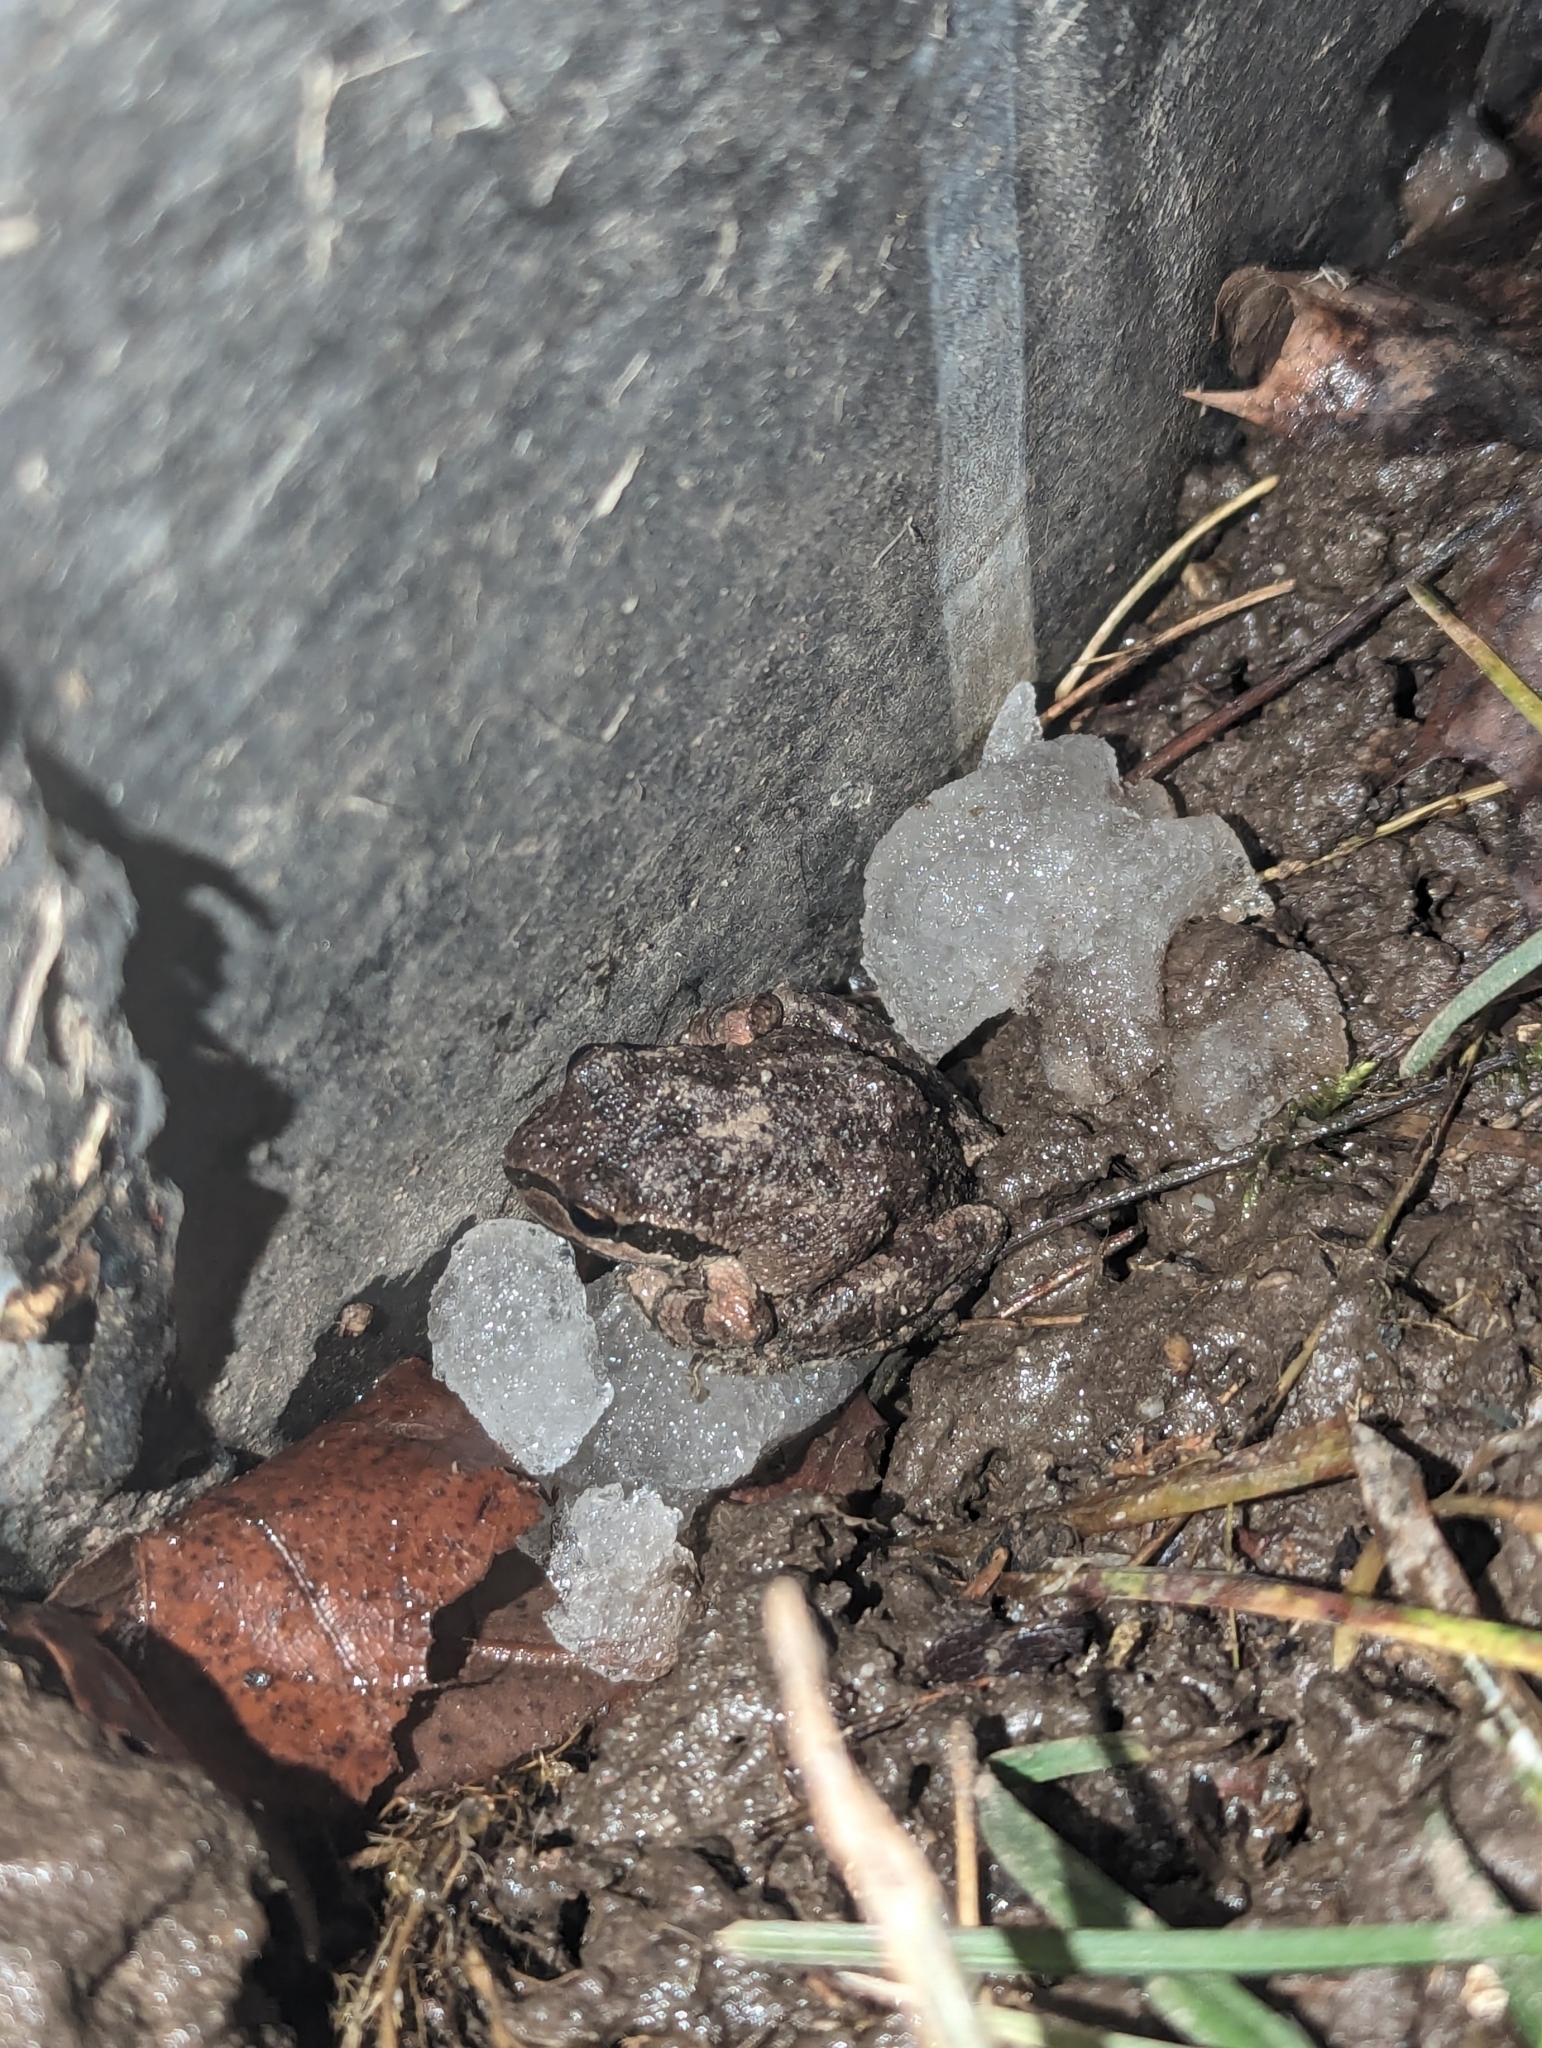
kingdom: Animalia
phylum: Chordata
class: Amphibia
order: Anura
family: Hylidae
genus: Pseudacris
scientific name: Pseudacris regilla
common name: Pacific chorus frog
